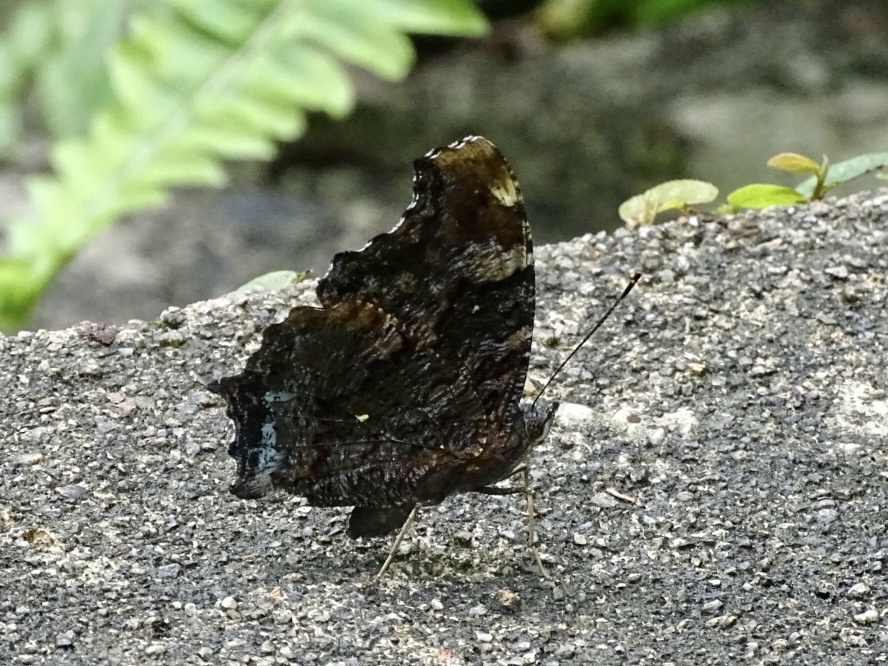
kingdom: Animalia
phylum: Arthropoda
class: Insecta
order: Lepidoptera
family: Nymphalidae
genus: Vanessa
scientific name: Vanessa Kaniska canace
